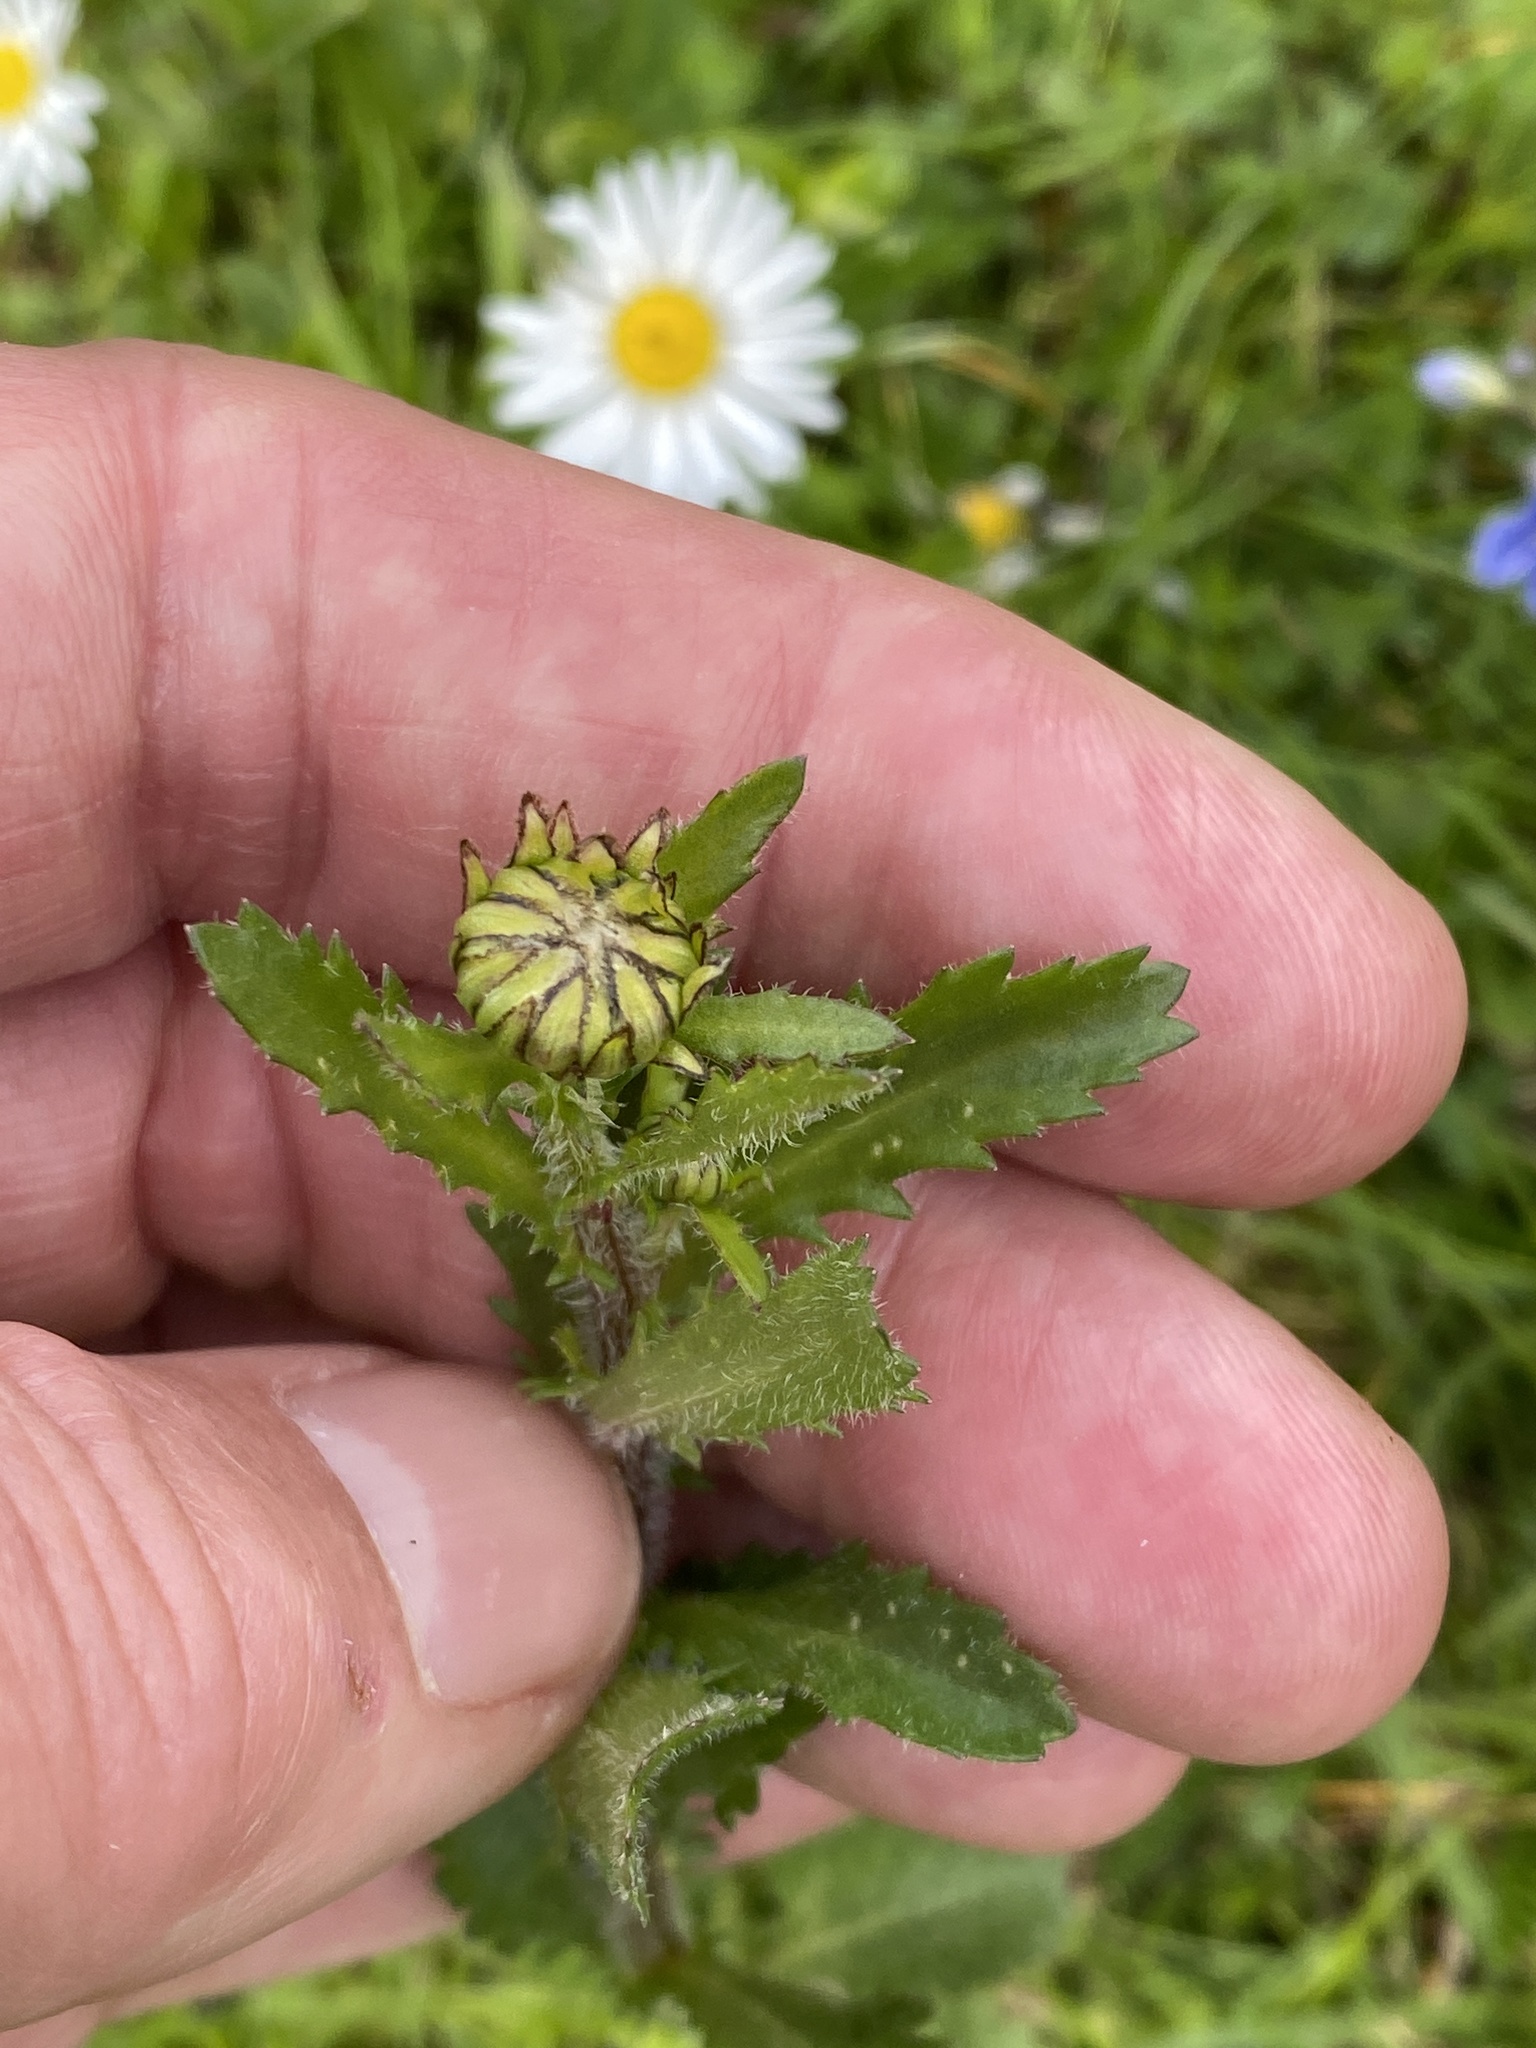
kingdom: Plantae
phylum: Tracheophyta
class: Magnoliopsida
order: Asterales
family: Asteraceae
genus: Leucanthemum
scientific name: Leucanthemum vulgare
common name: Oxeye daisy
